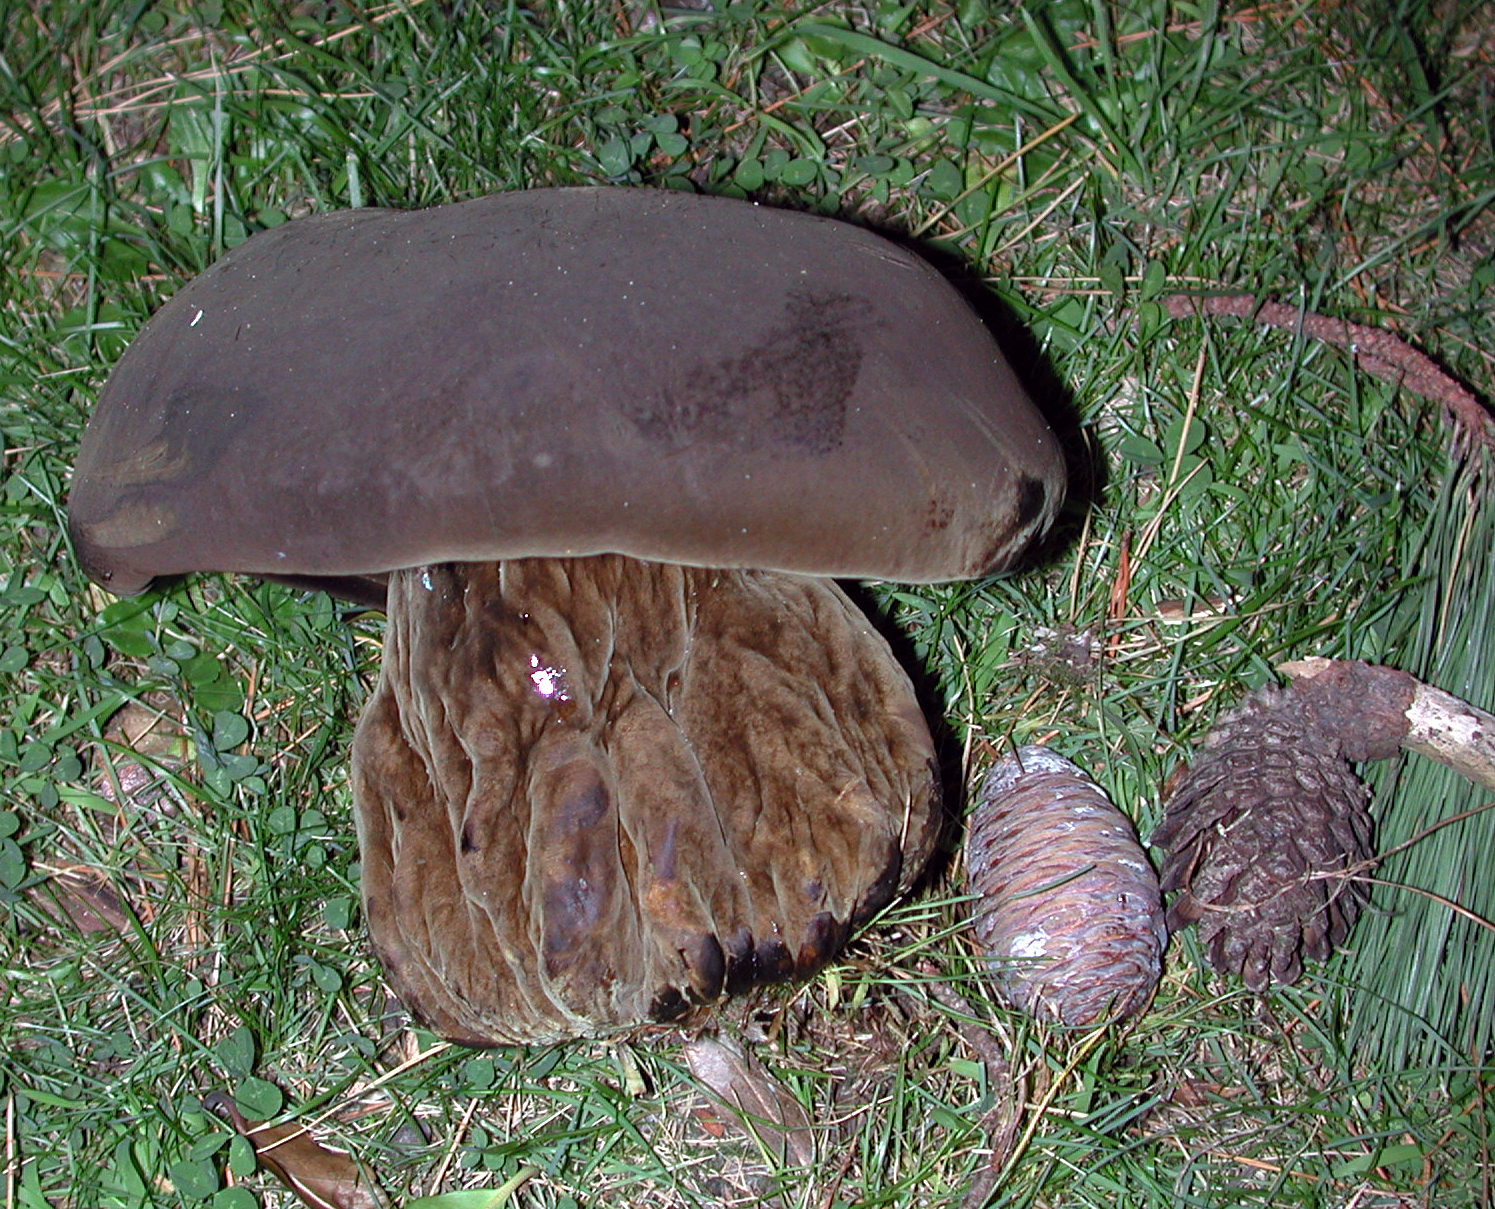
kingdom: Fungi
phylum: Basidiomycota
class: Agaricomycetes
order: Boletales
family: Boletinellaceae
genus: Phlebopus
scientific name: Phlebopus
